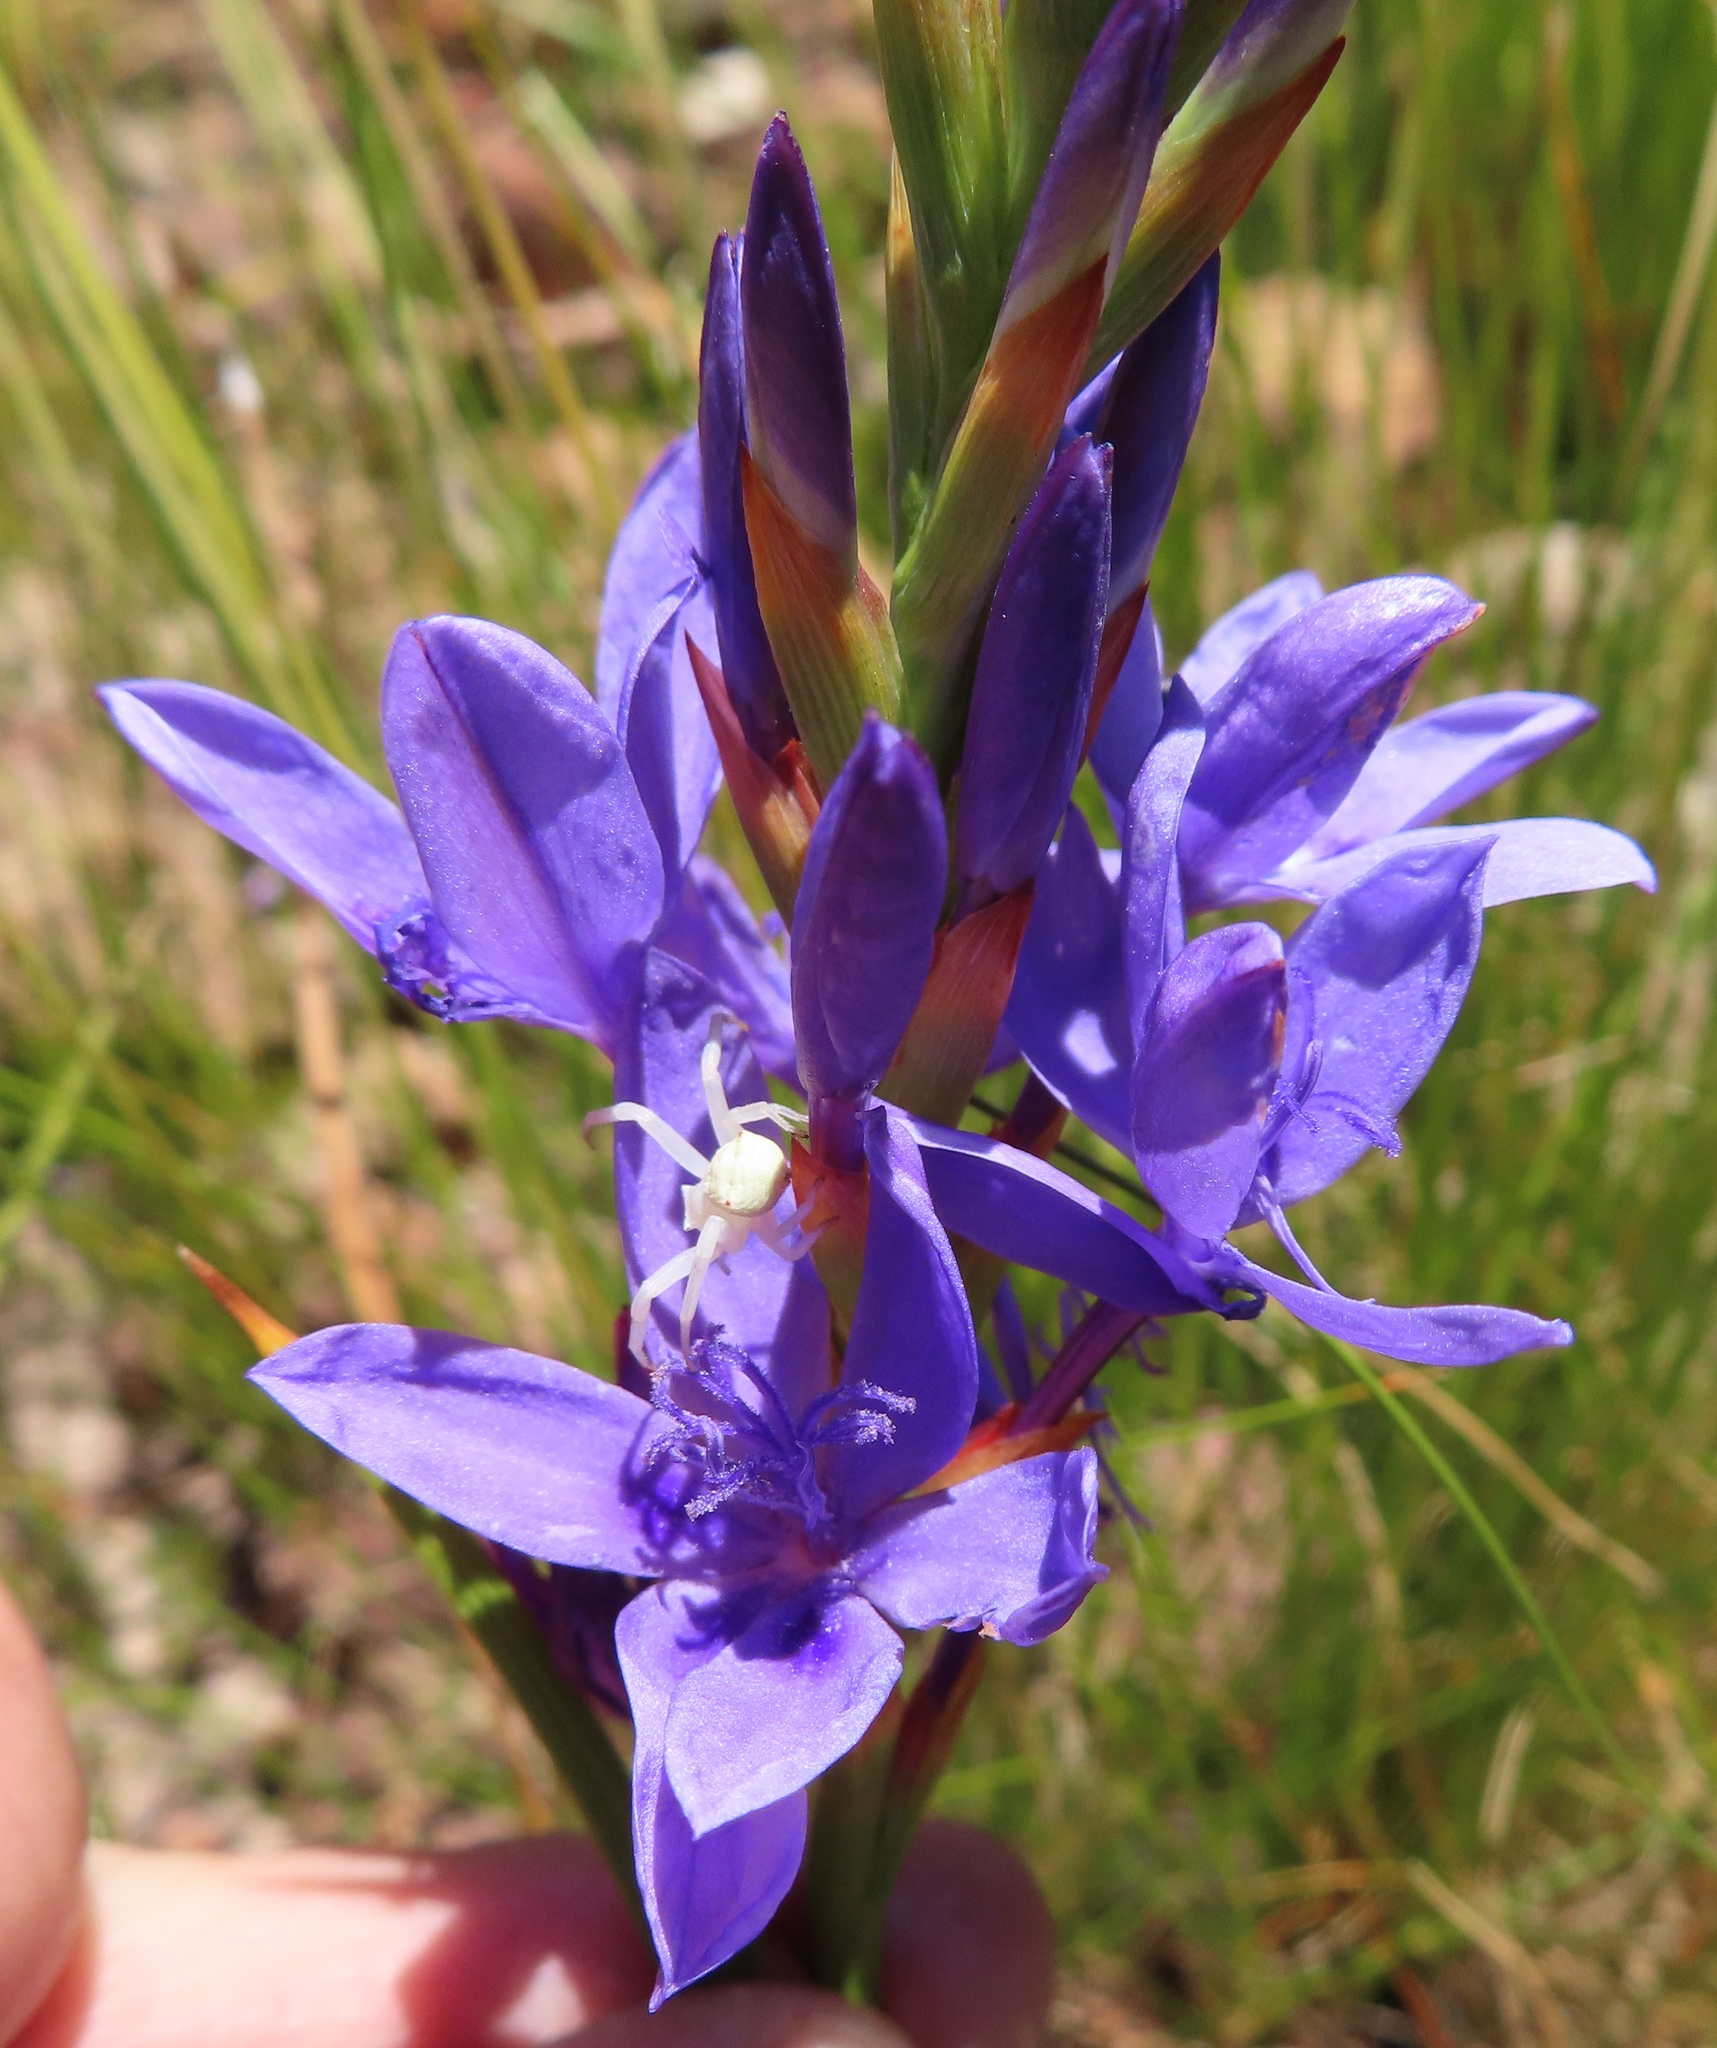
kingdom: Plantae
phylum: Tracheophyta
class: Liliopsida
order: Asparagales
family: Iridaceae
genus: Thereianthus
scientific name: Thereianthus spicatus
